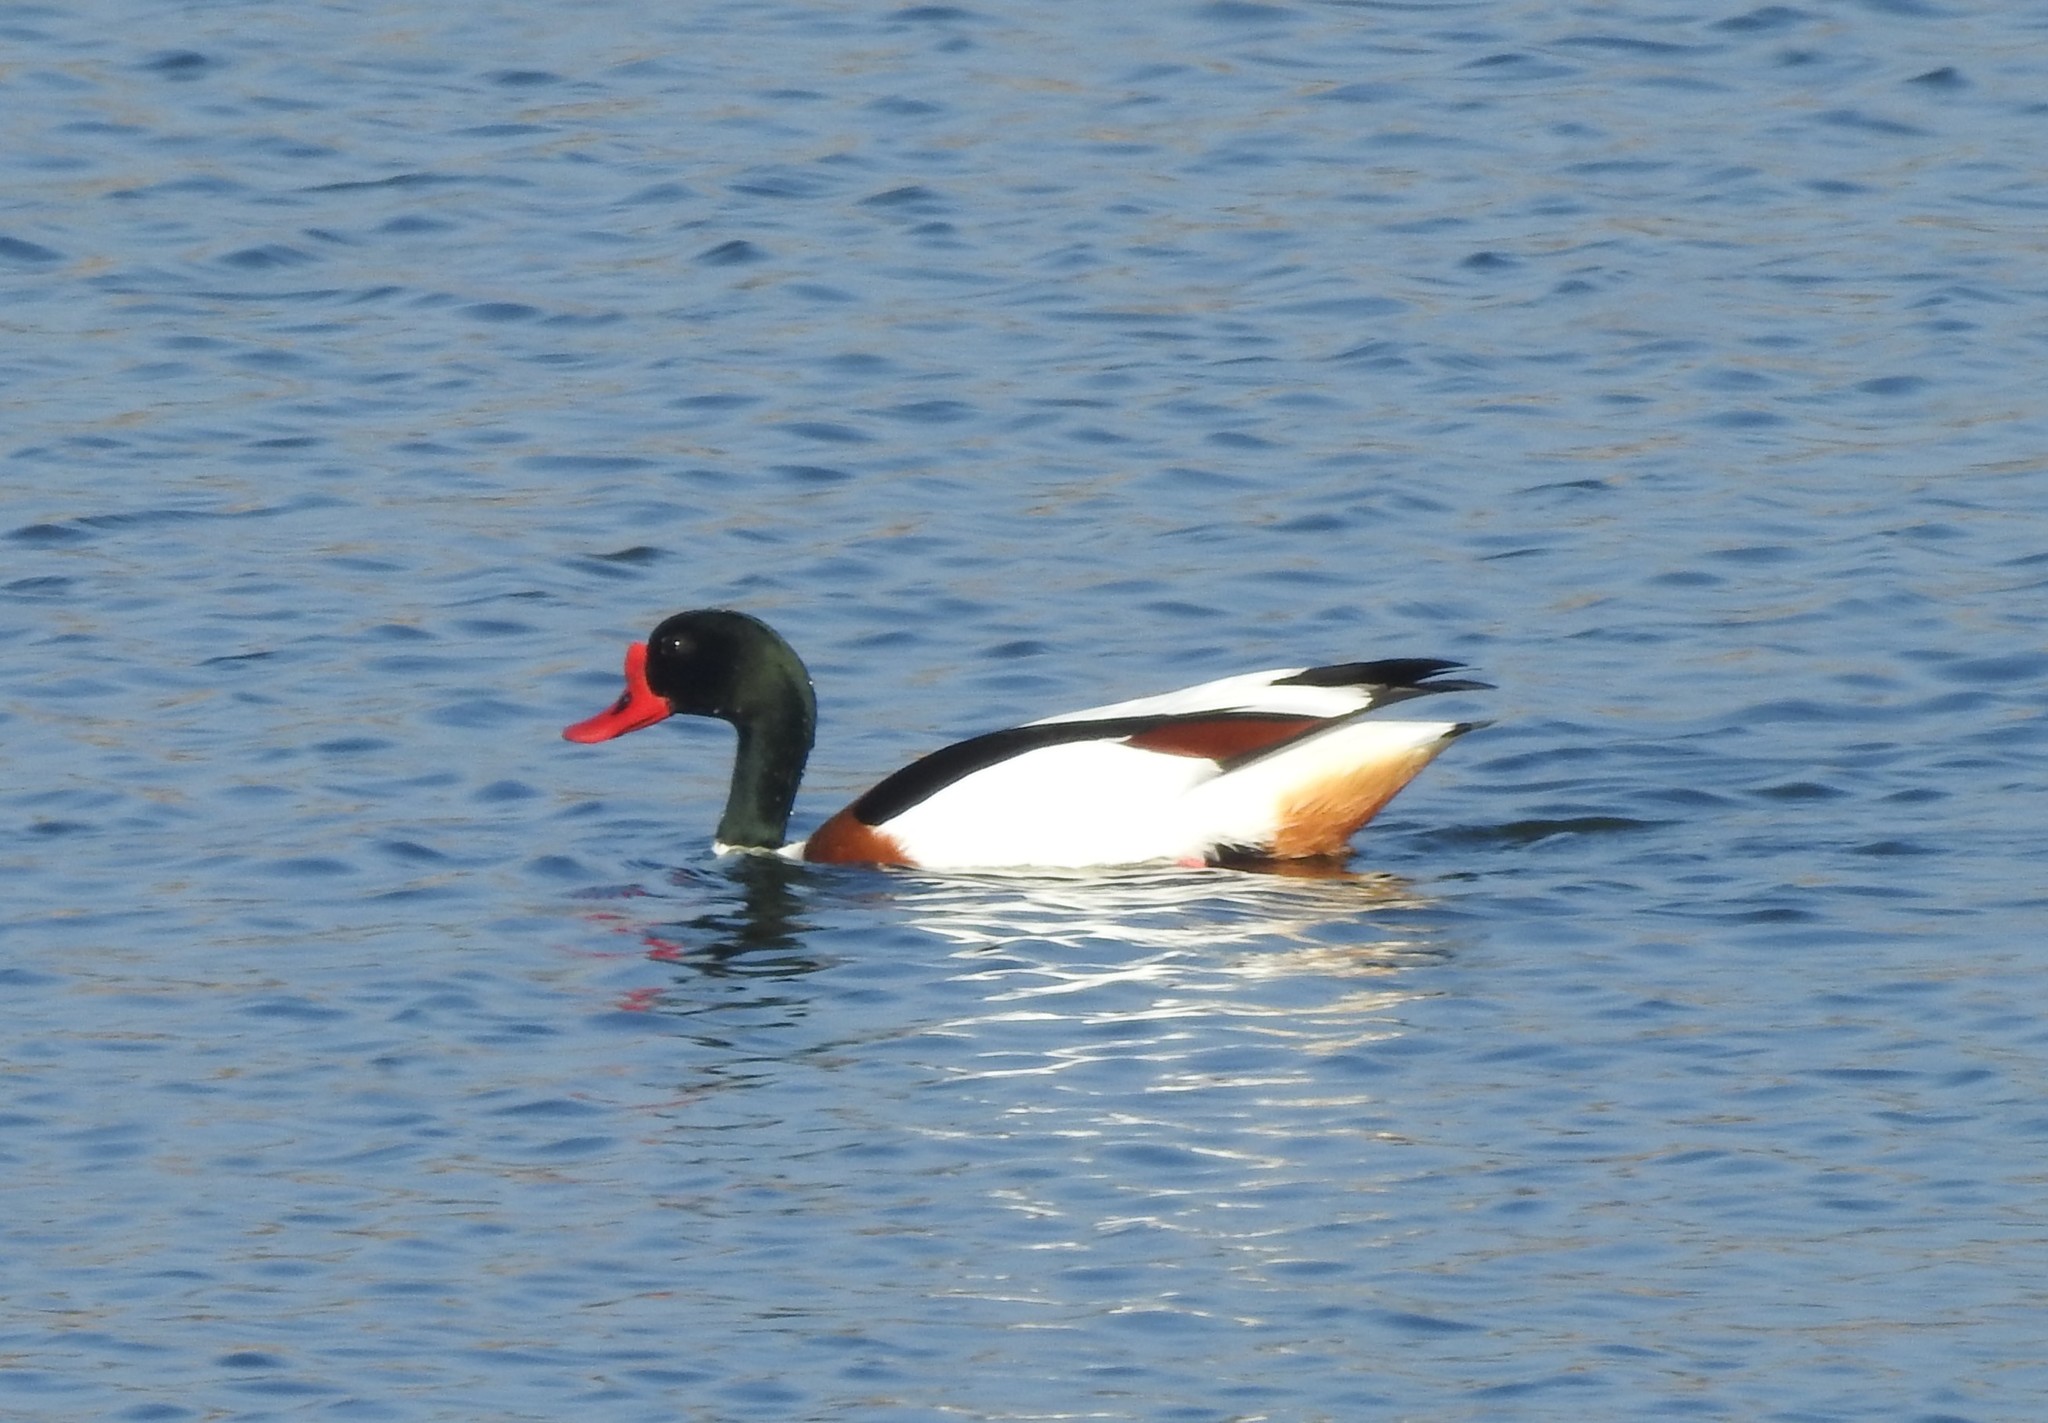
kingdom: Animalia
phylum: Chordata
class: Aves
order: Anseriformes
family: Anatidae
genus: Tadorna
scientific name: Tadorna tadorna
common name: Common shelduck
